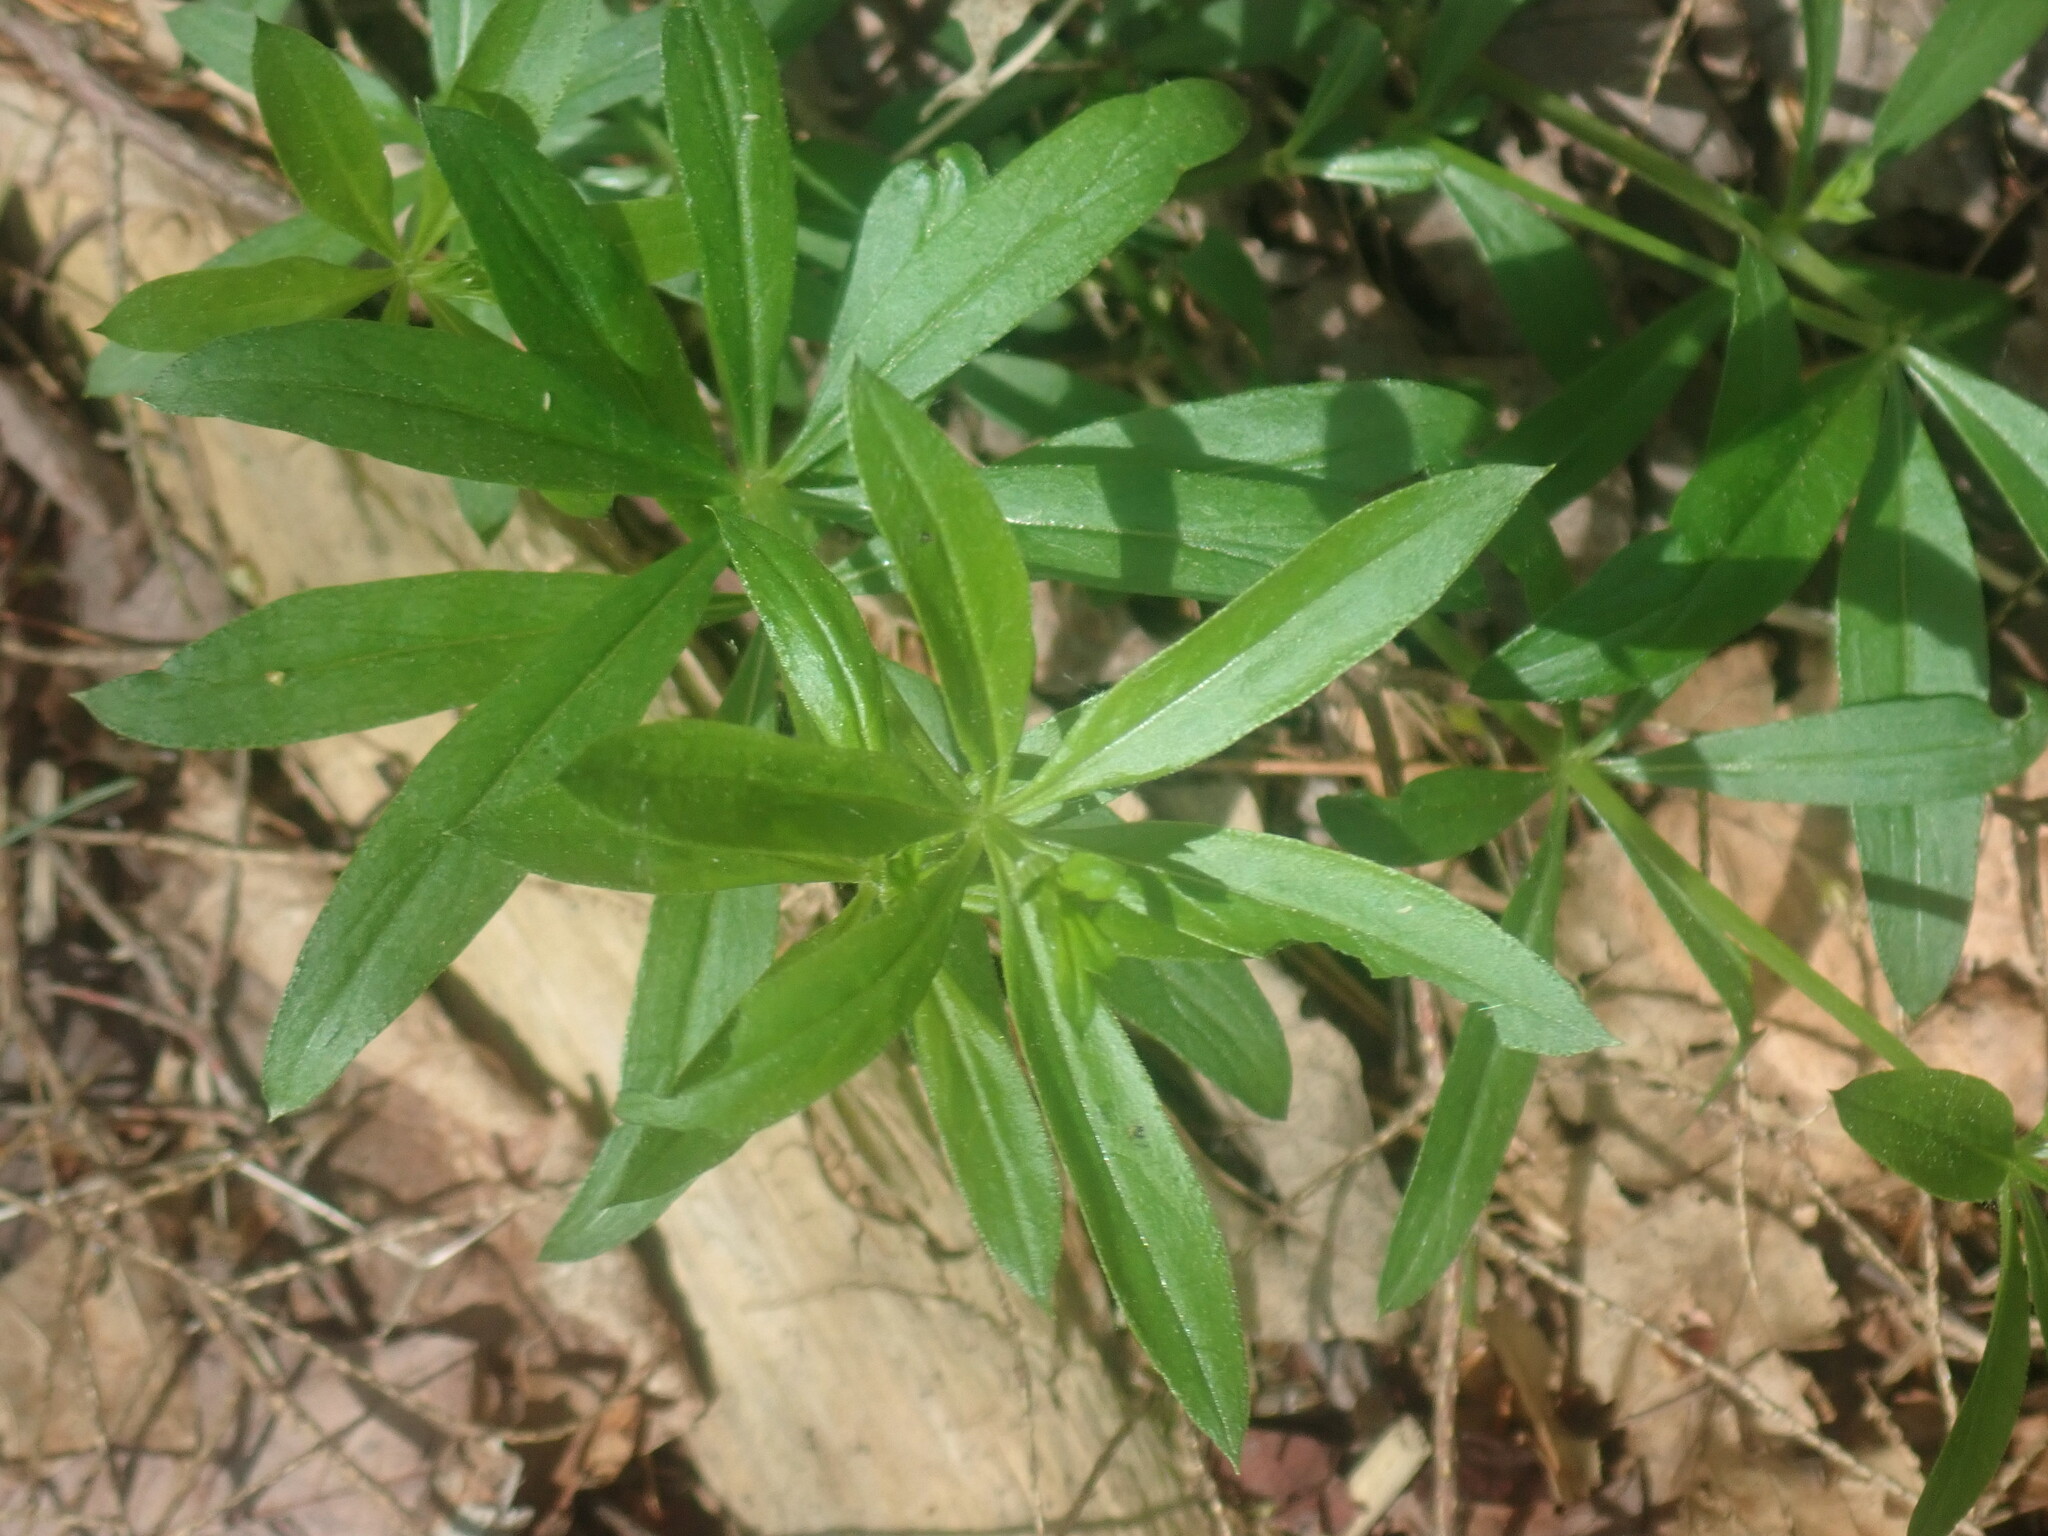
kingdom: Plantae
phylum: Tracheophyta
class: Magnoliopsida
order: Gentianales
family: Rubiaceae
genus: Galium
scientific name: Galium triflorum
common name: Fragrant bedstraw
